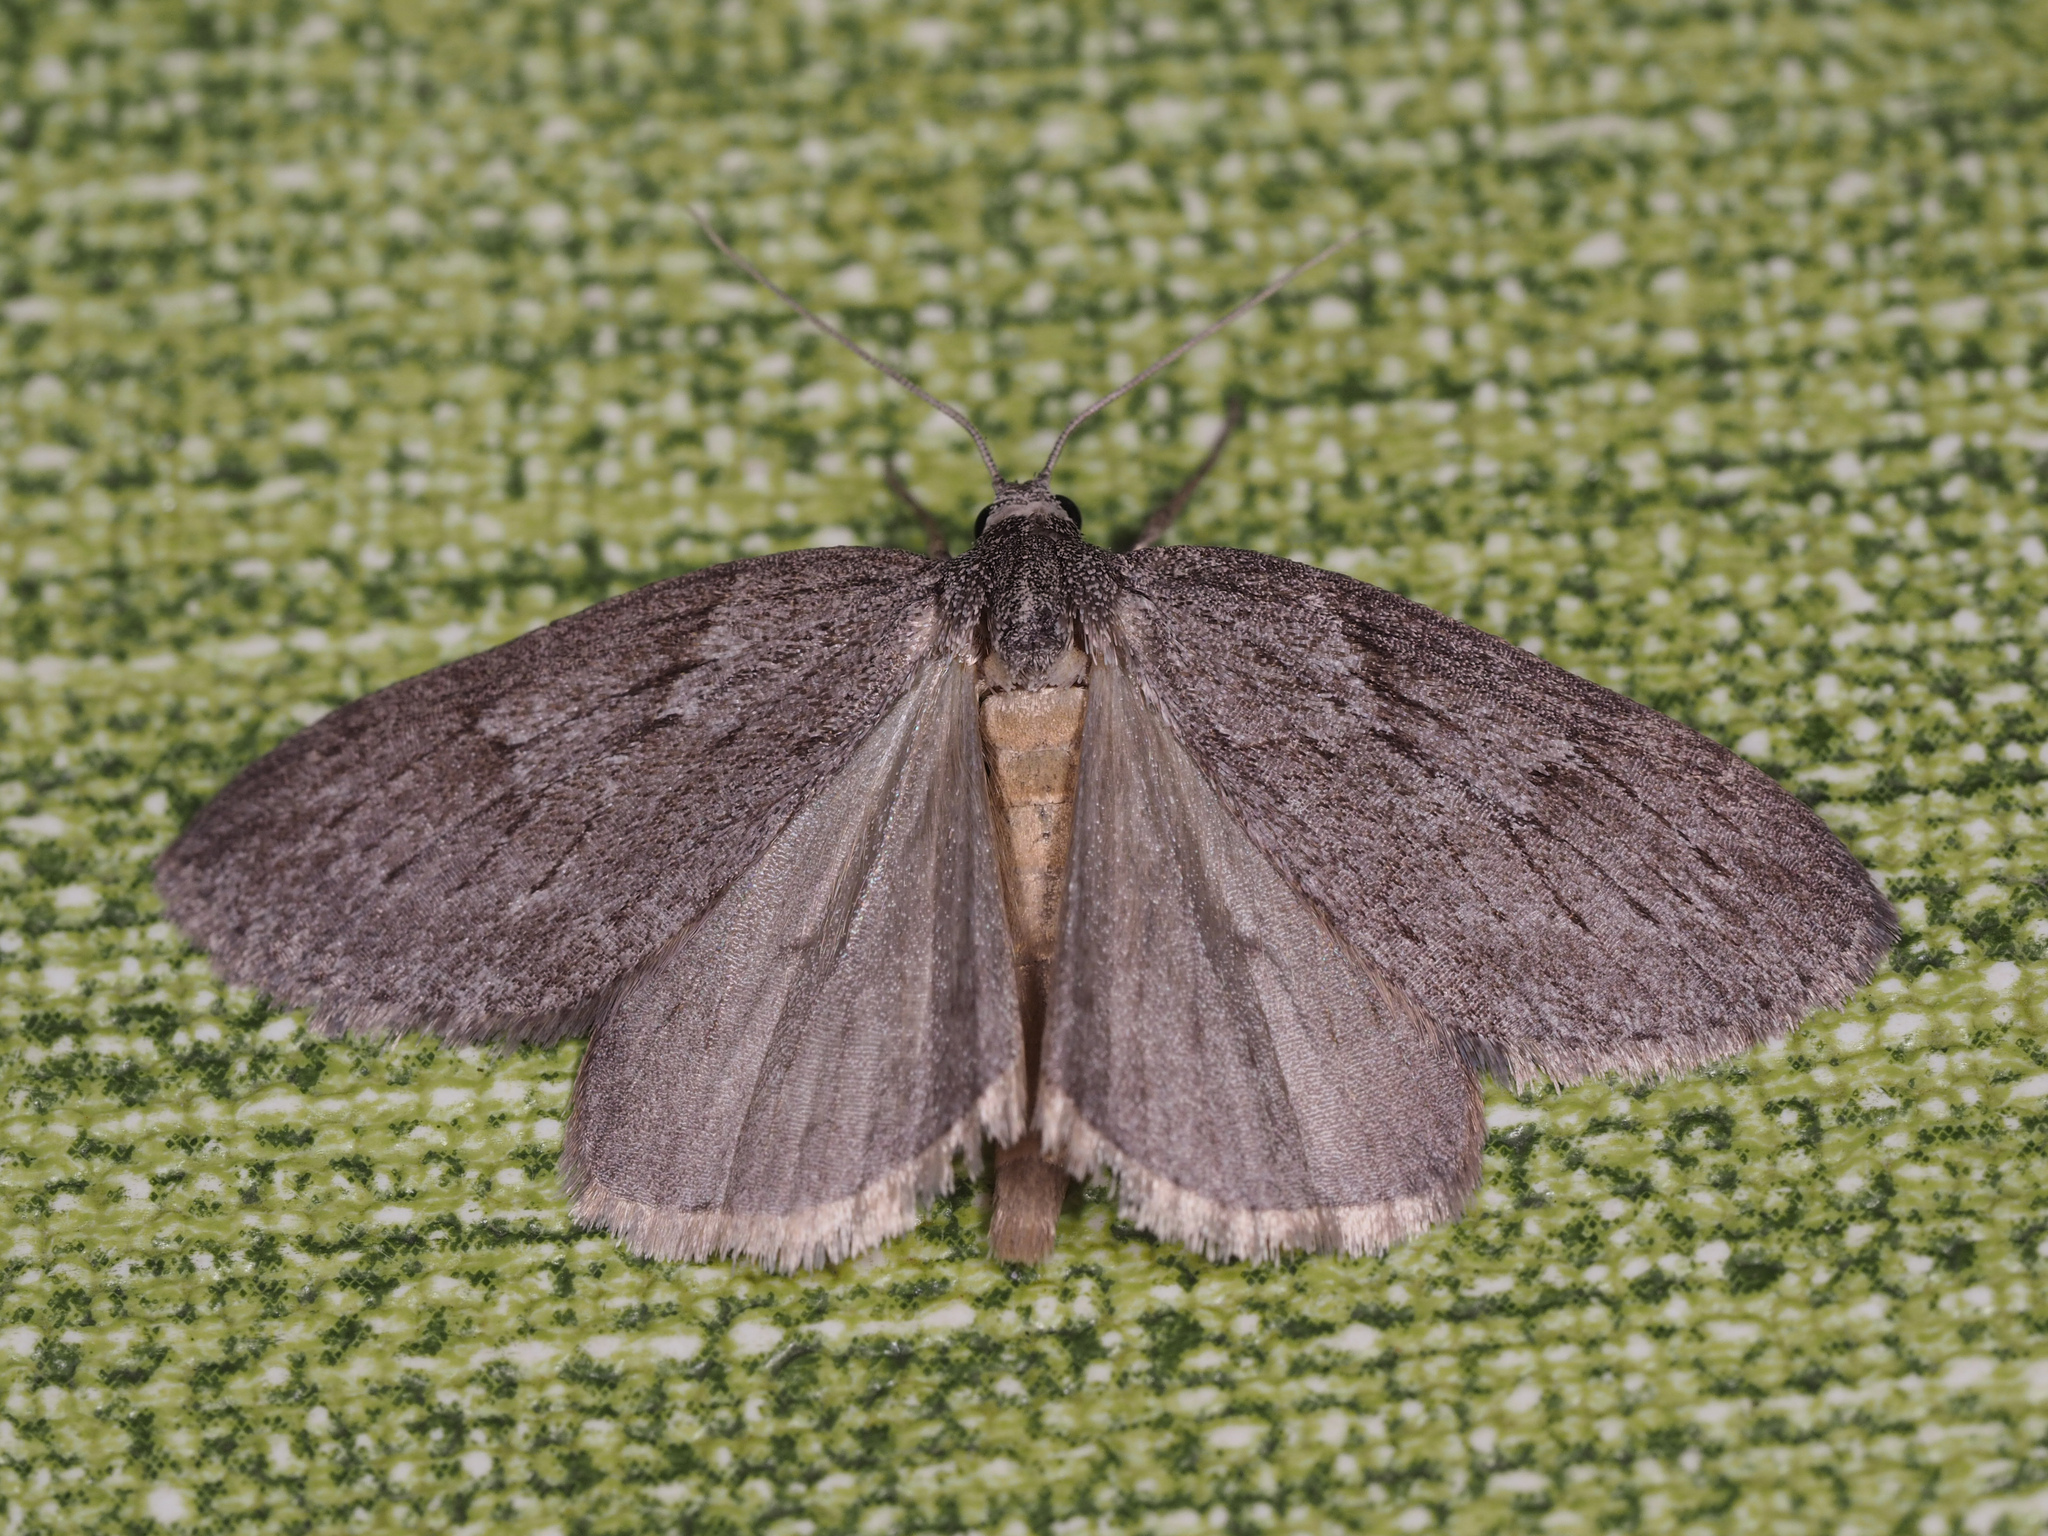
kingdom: Animalia
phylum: Arthropoda
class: Insecta
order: Lepidoptera
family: Geometridae
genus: Pachycnemia
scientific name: Pachycnemia hippocastanaria
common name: Horse chestnut
